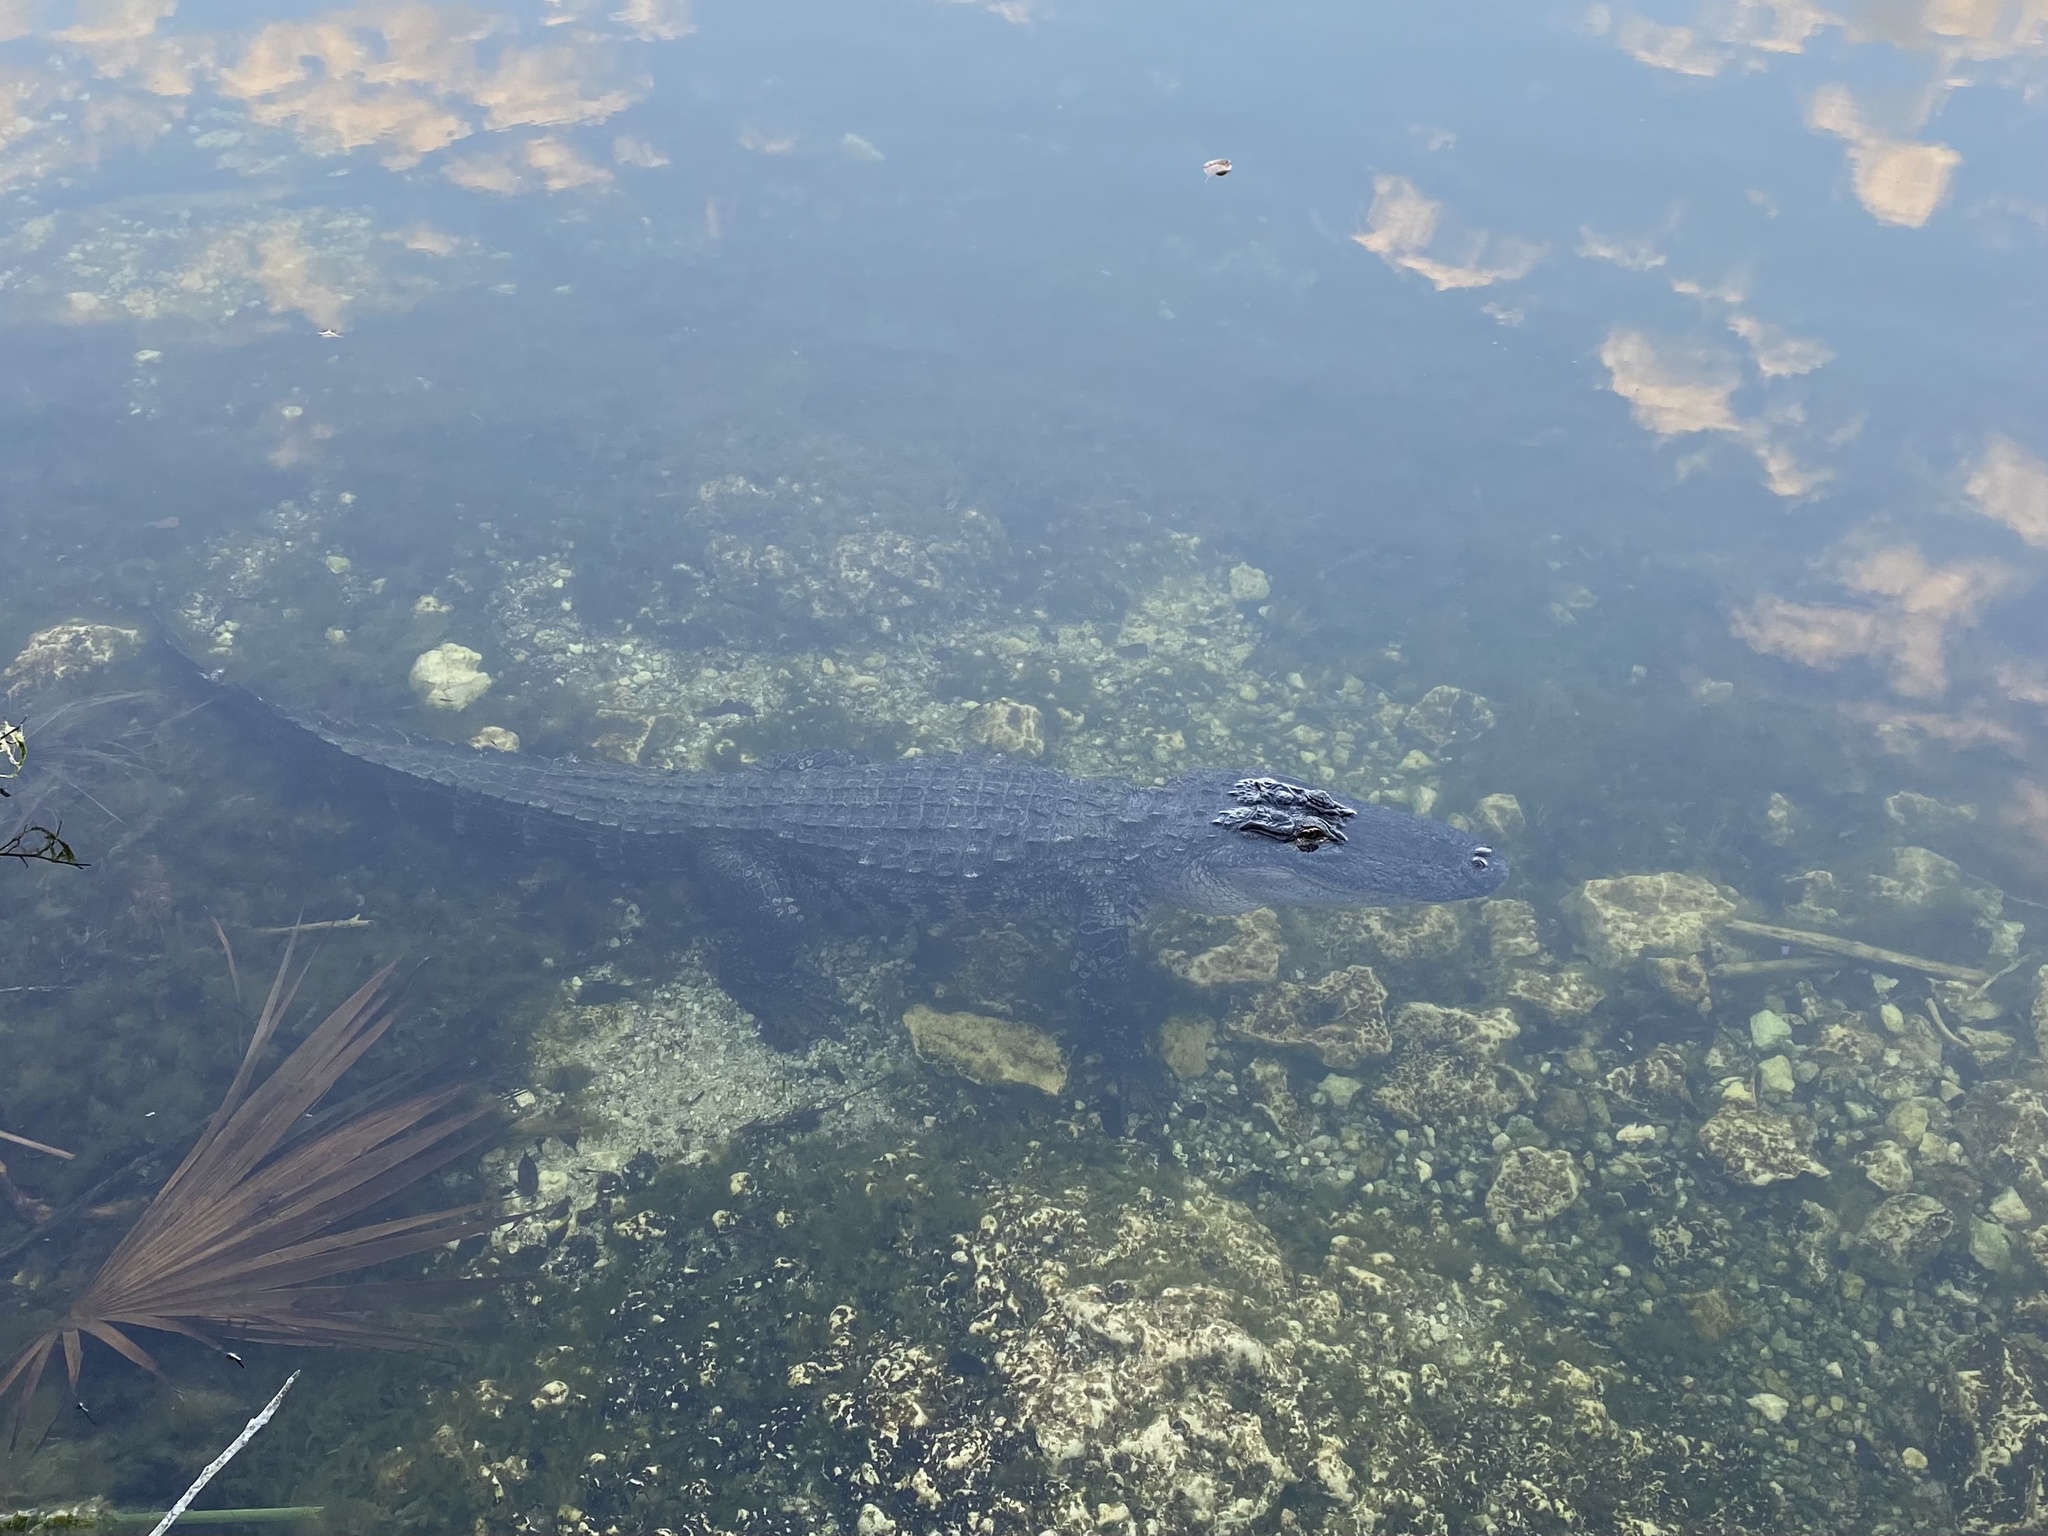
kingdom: Animalia
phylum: Chordata
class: Crocodylia
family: Alligatoridae
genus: Alligator
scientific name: Alligator mississippiensis
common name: American alligator
